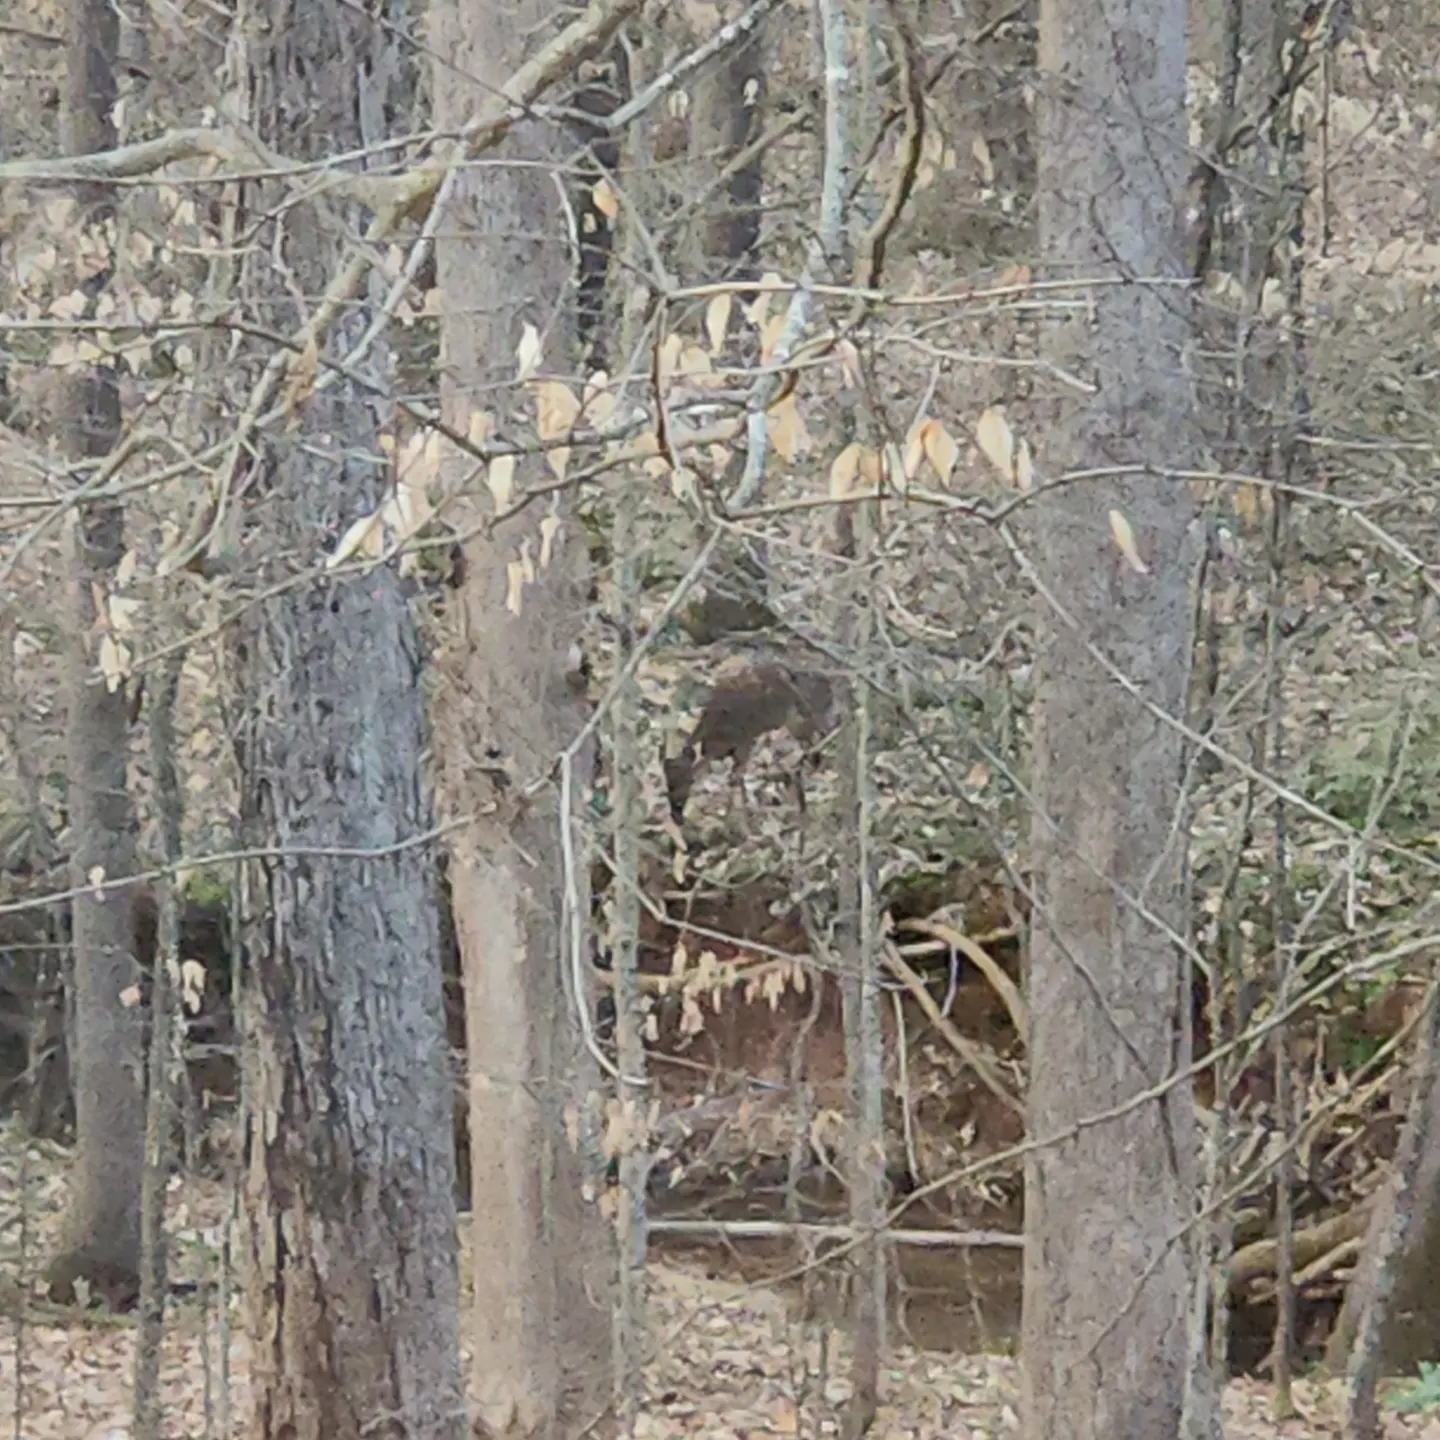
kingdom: Animalia
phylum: Chordata
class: Mammalia
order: Artiodactyla
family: Cervidae
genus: Odocoileus
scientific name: Odocoileus virginianus
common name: White-tailed deer
